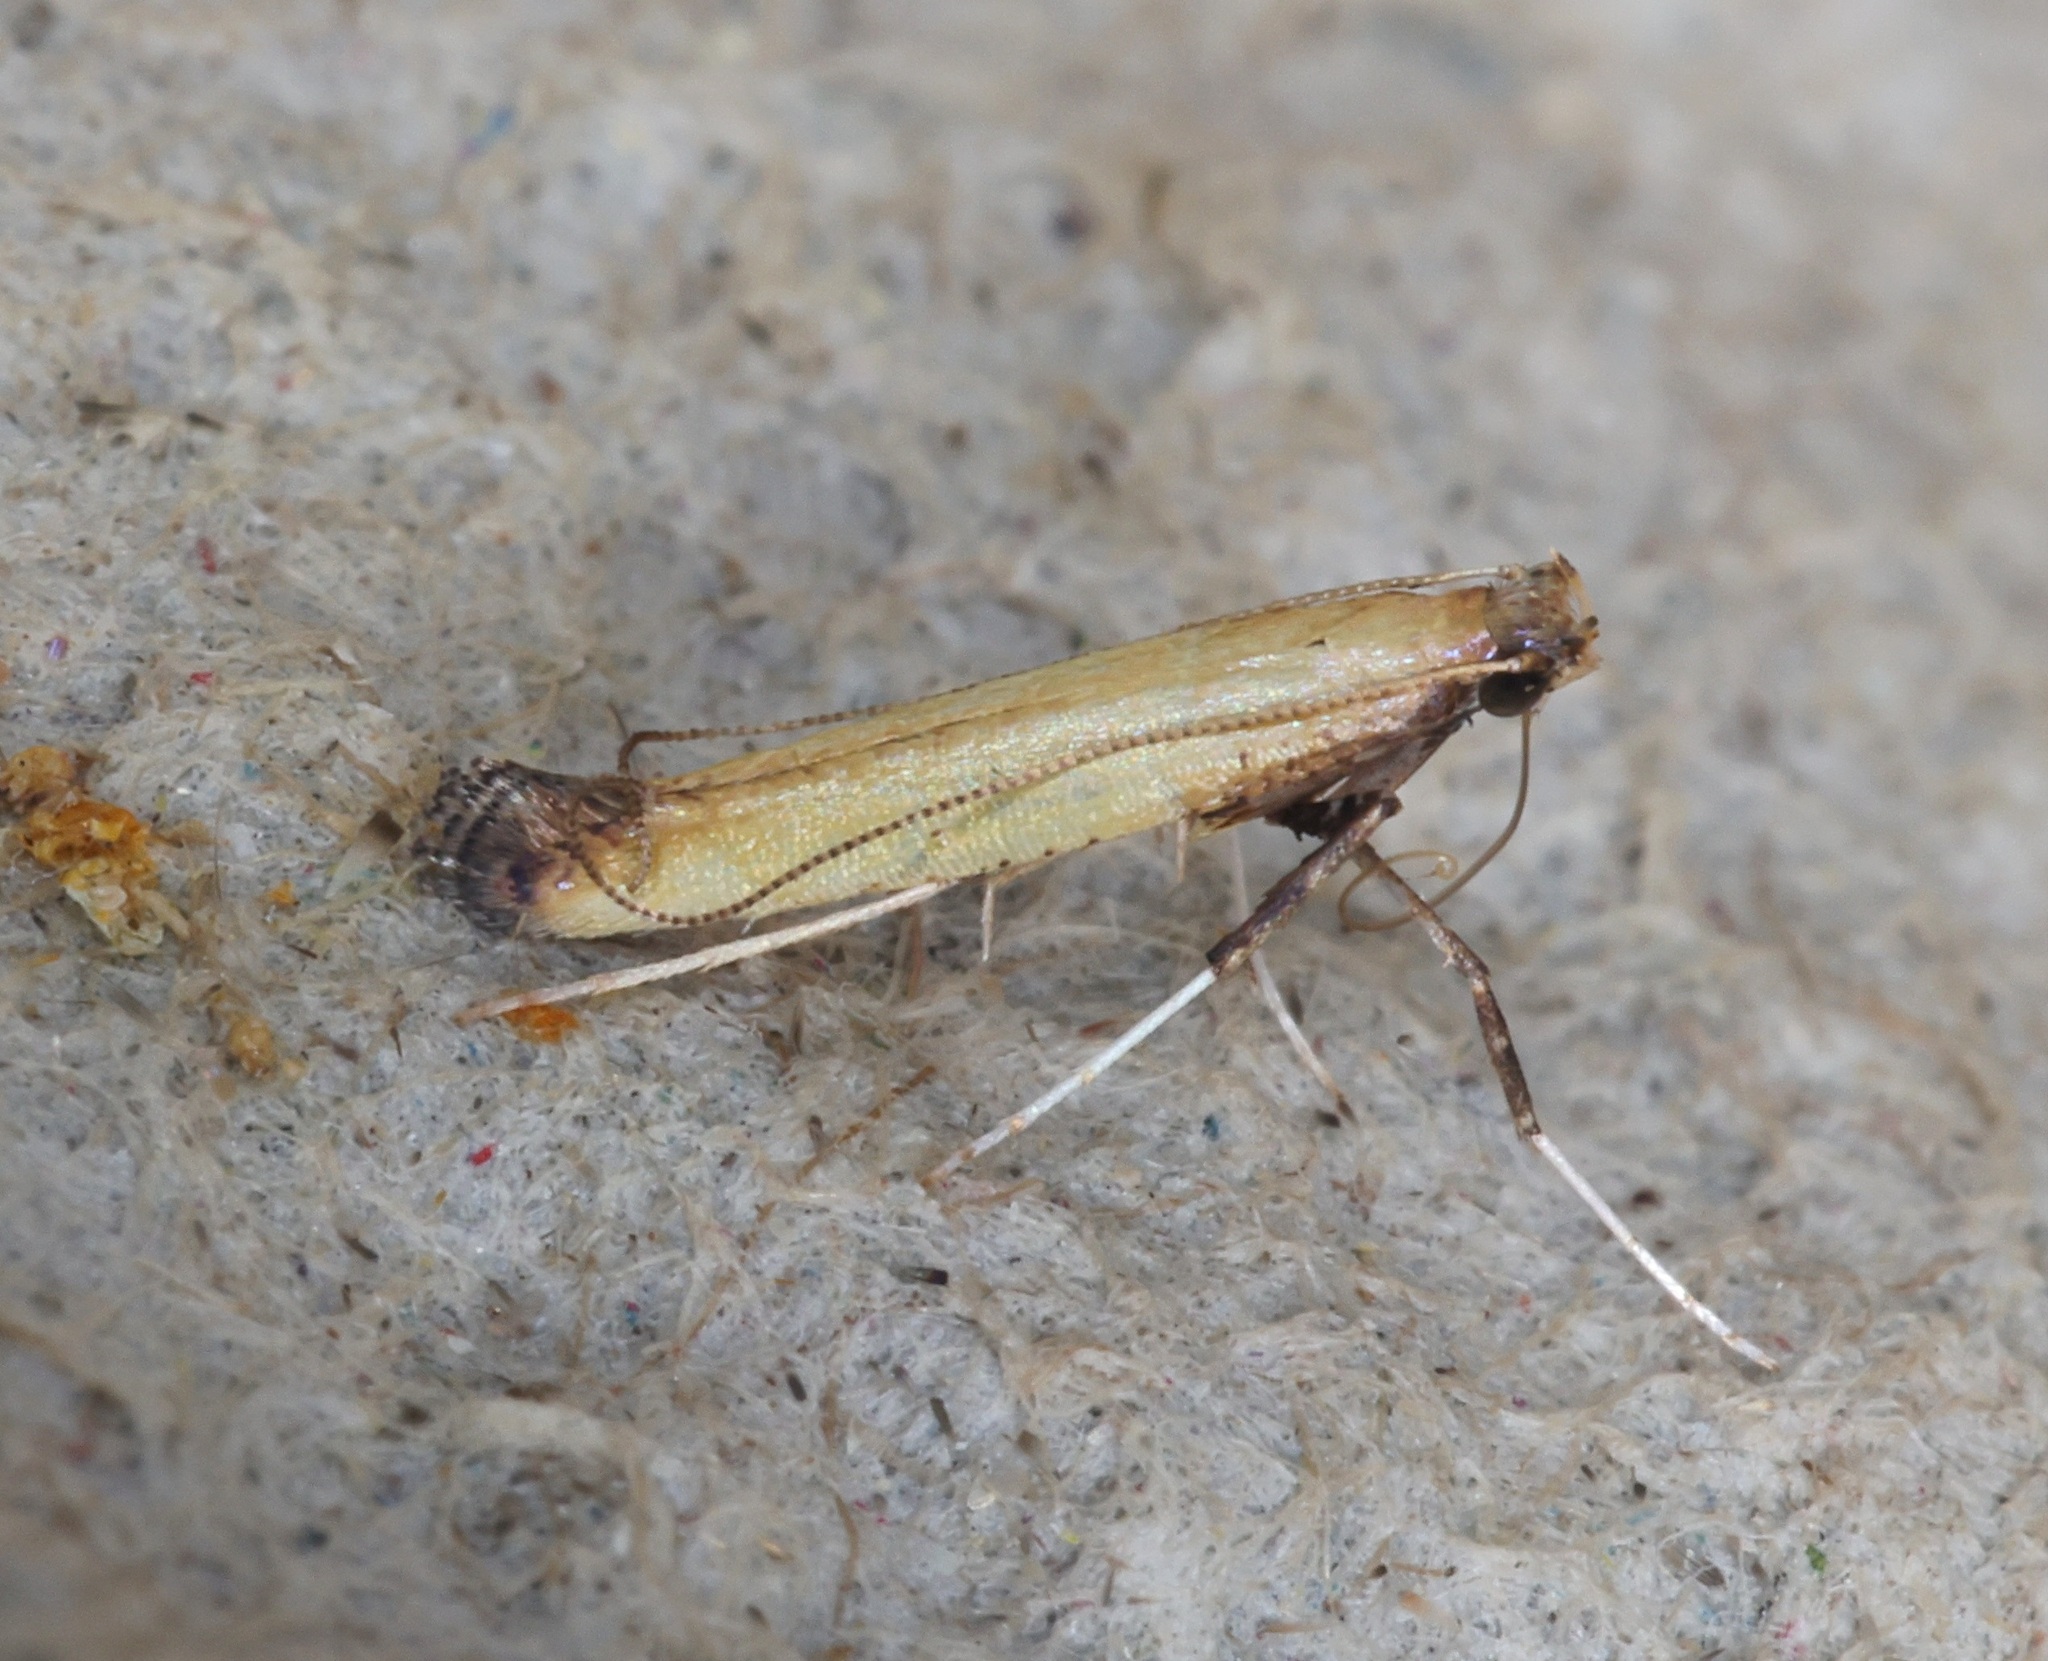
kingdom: Animalia
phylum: Arthropoda
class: Insecta
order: Lepidoptera
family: Gracillariidae
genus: Caloptilia
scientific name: Caloptilia
